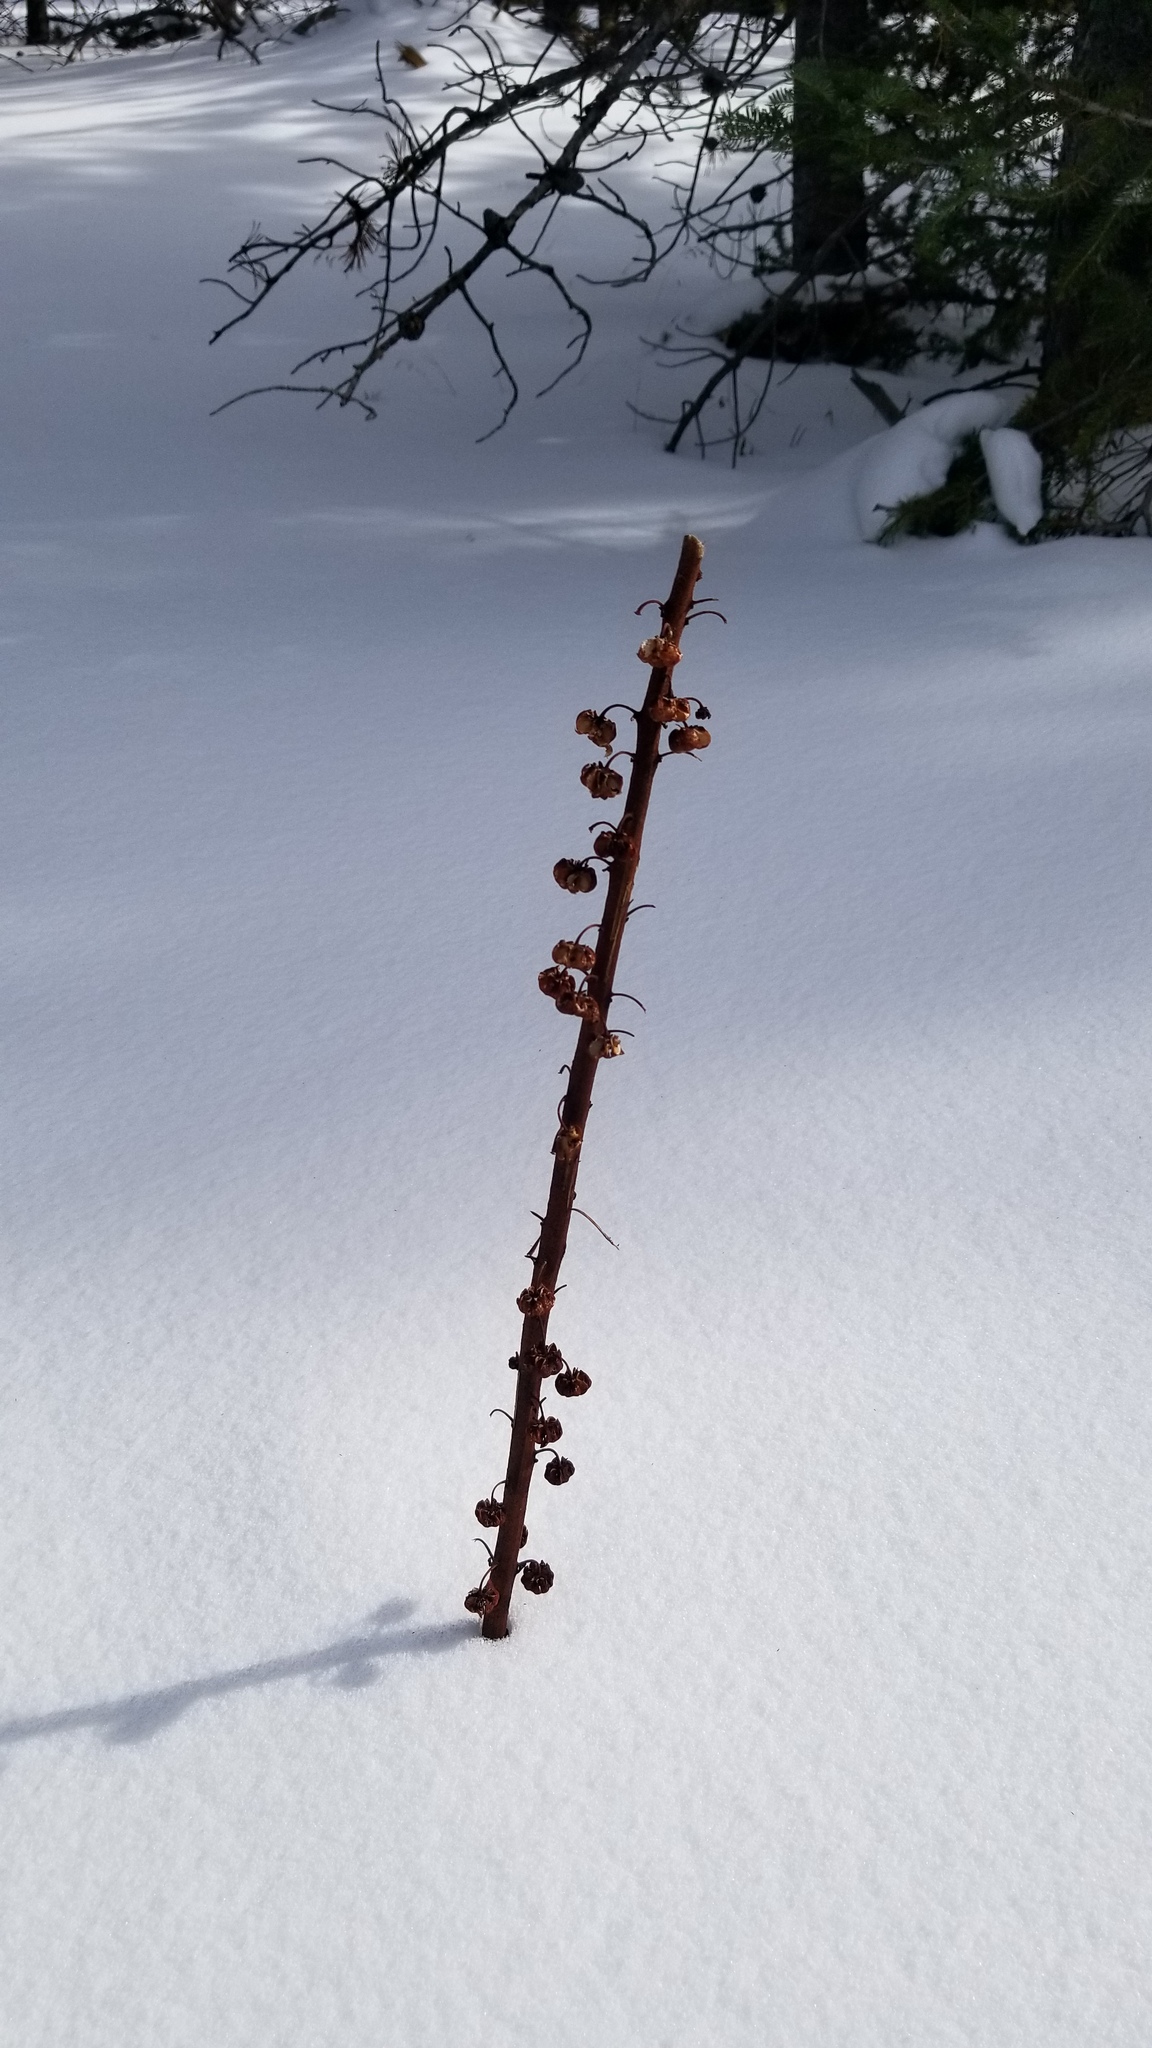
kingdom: Plantae
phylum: Tracheophyta
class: Magnoliopsida
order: Ericales
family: Ericaceae
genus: Pterospora
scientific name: Pterospora andromedea
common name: Giant bird's-nest
